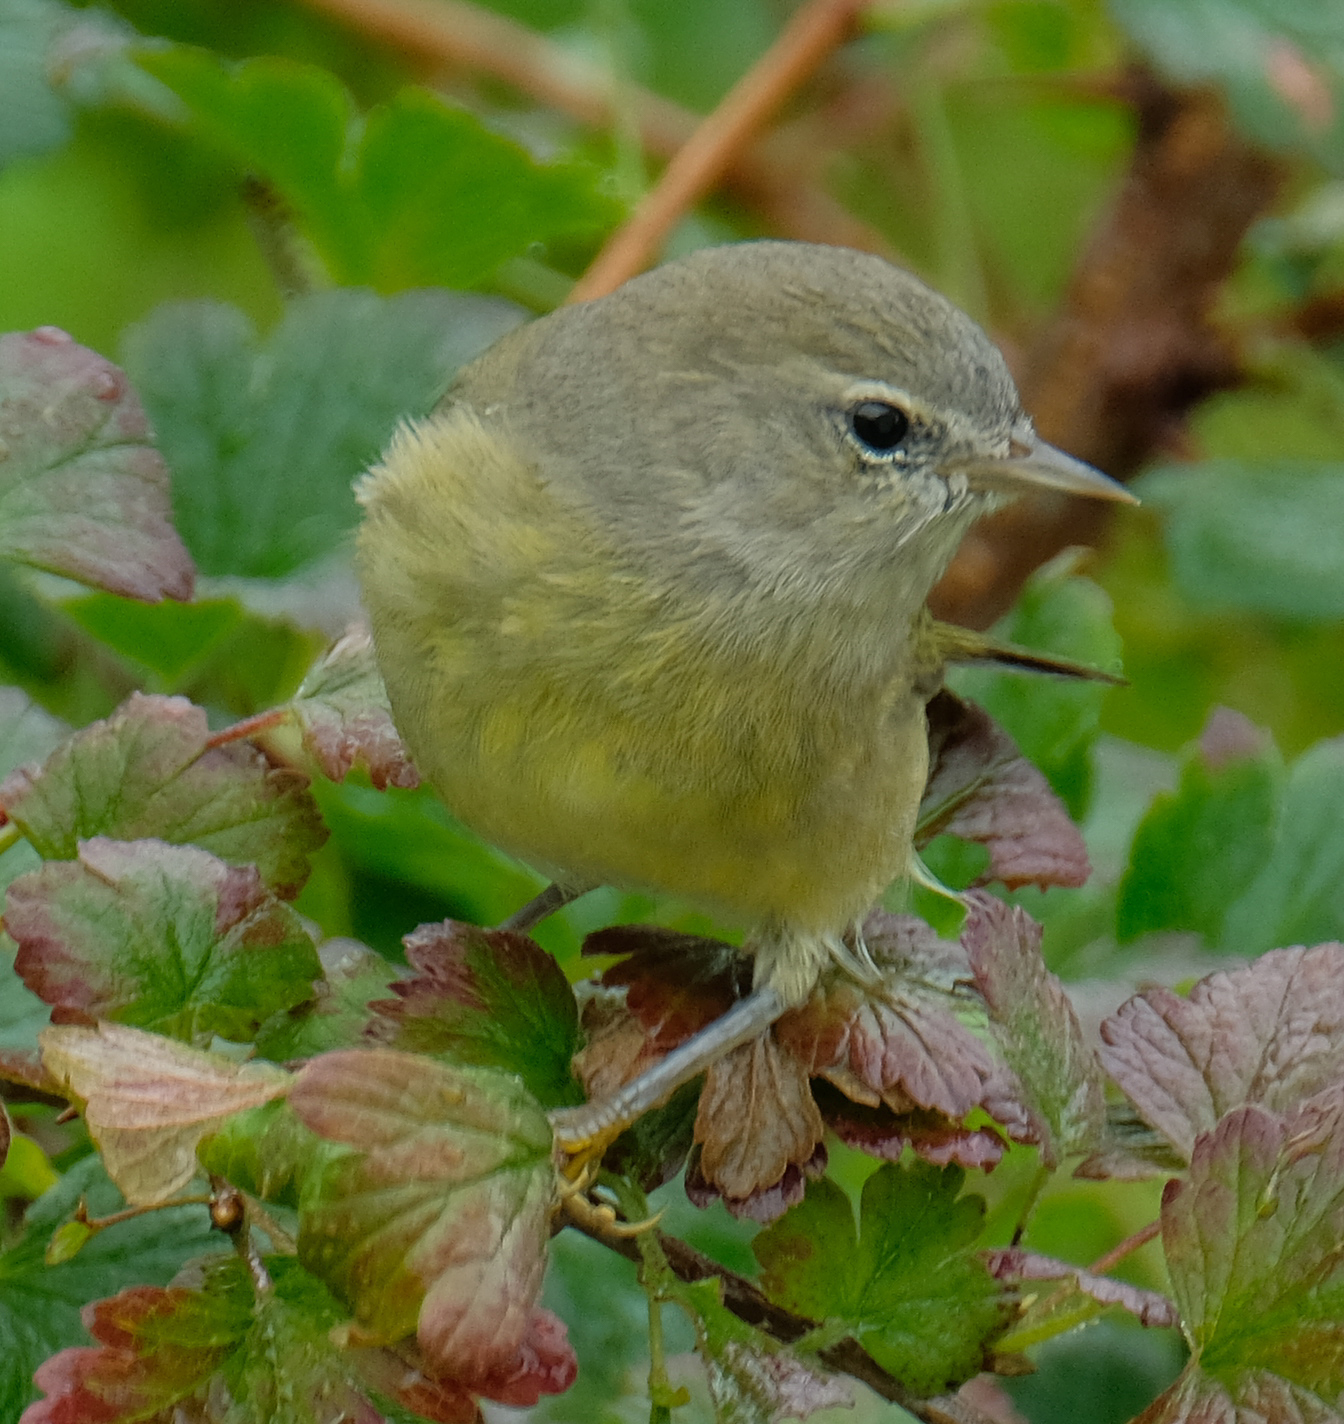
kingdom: Animalia
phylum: Chordata
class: Aves
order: Passeriformes
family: Parulidae
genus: Leiothlypis
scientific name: Leiothlypis celata
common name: Orange-crowned warbler
